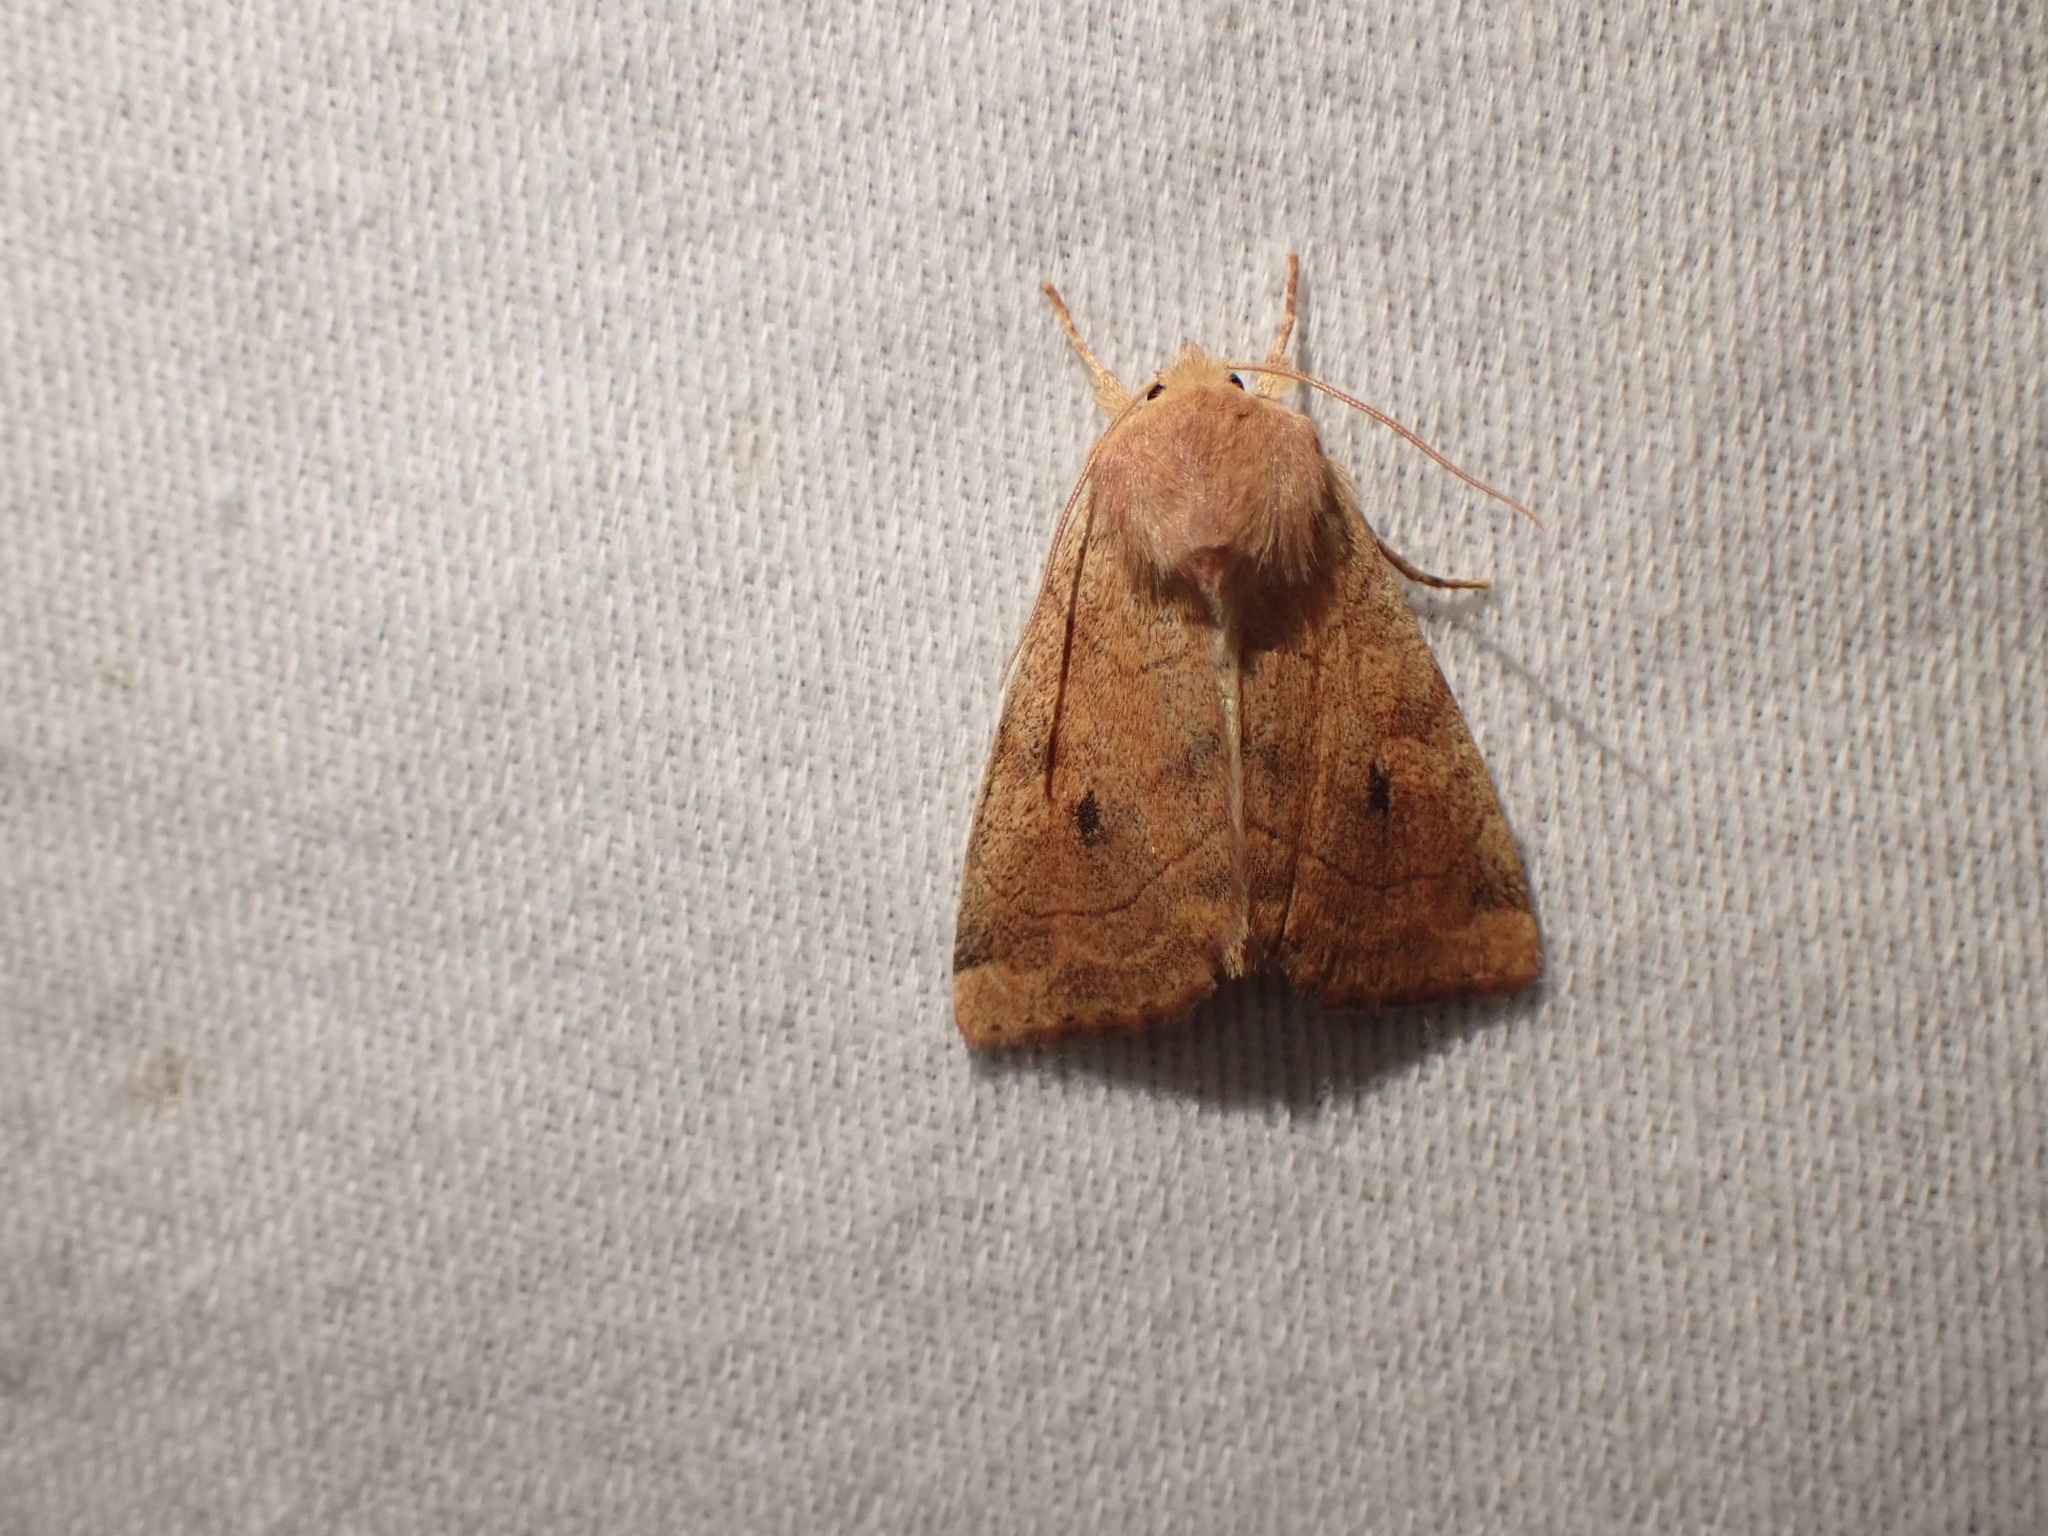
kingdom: Animalia
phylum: Arthropoda
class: Insecta
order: Lepidoptera
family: Noctuidae
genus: Enargia
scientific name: Enargia infumata
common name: Smoked sallow
